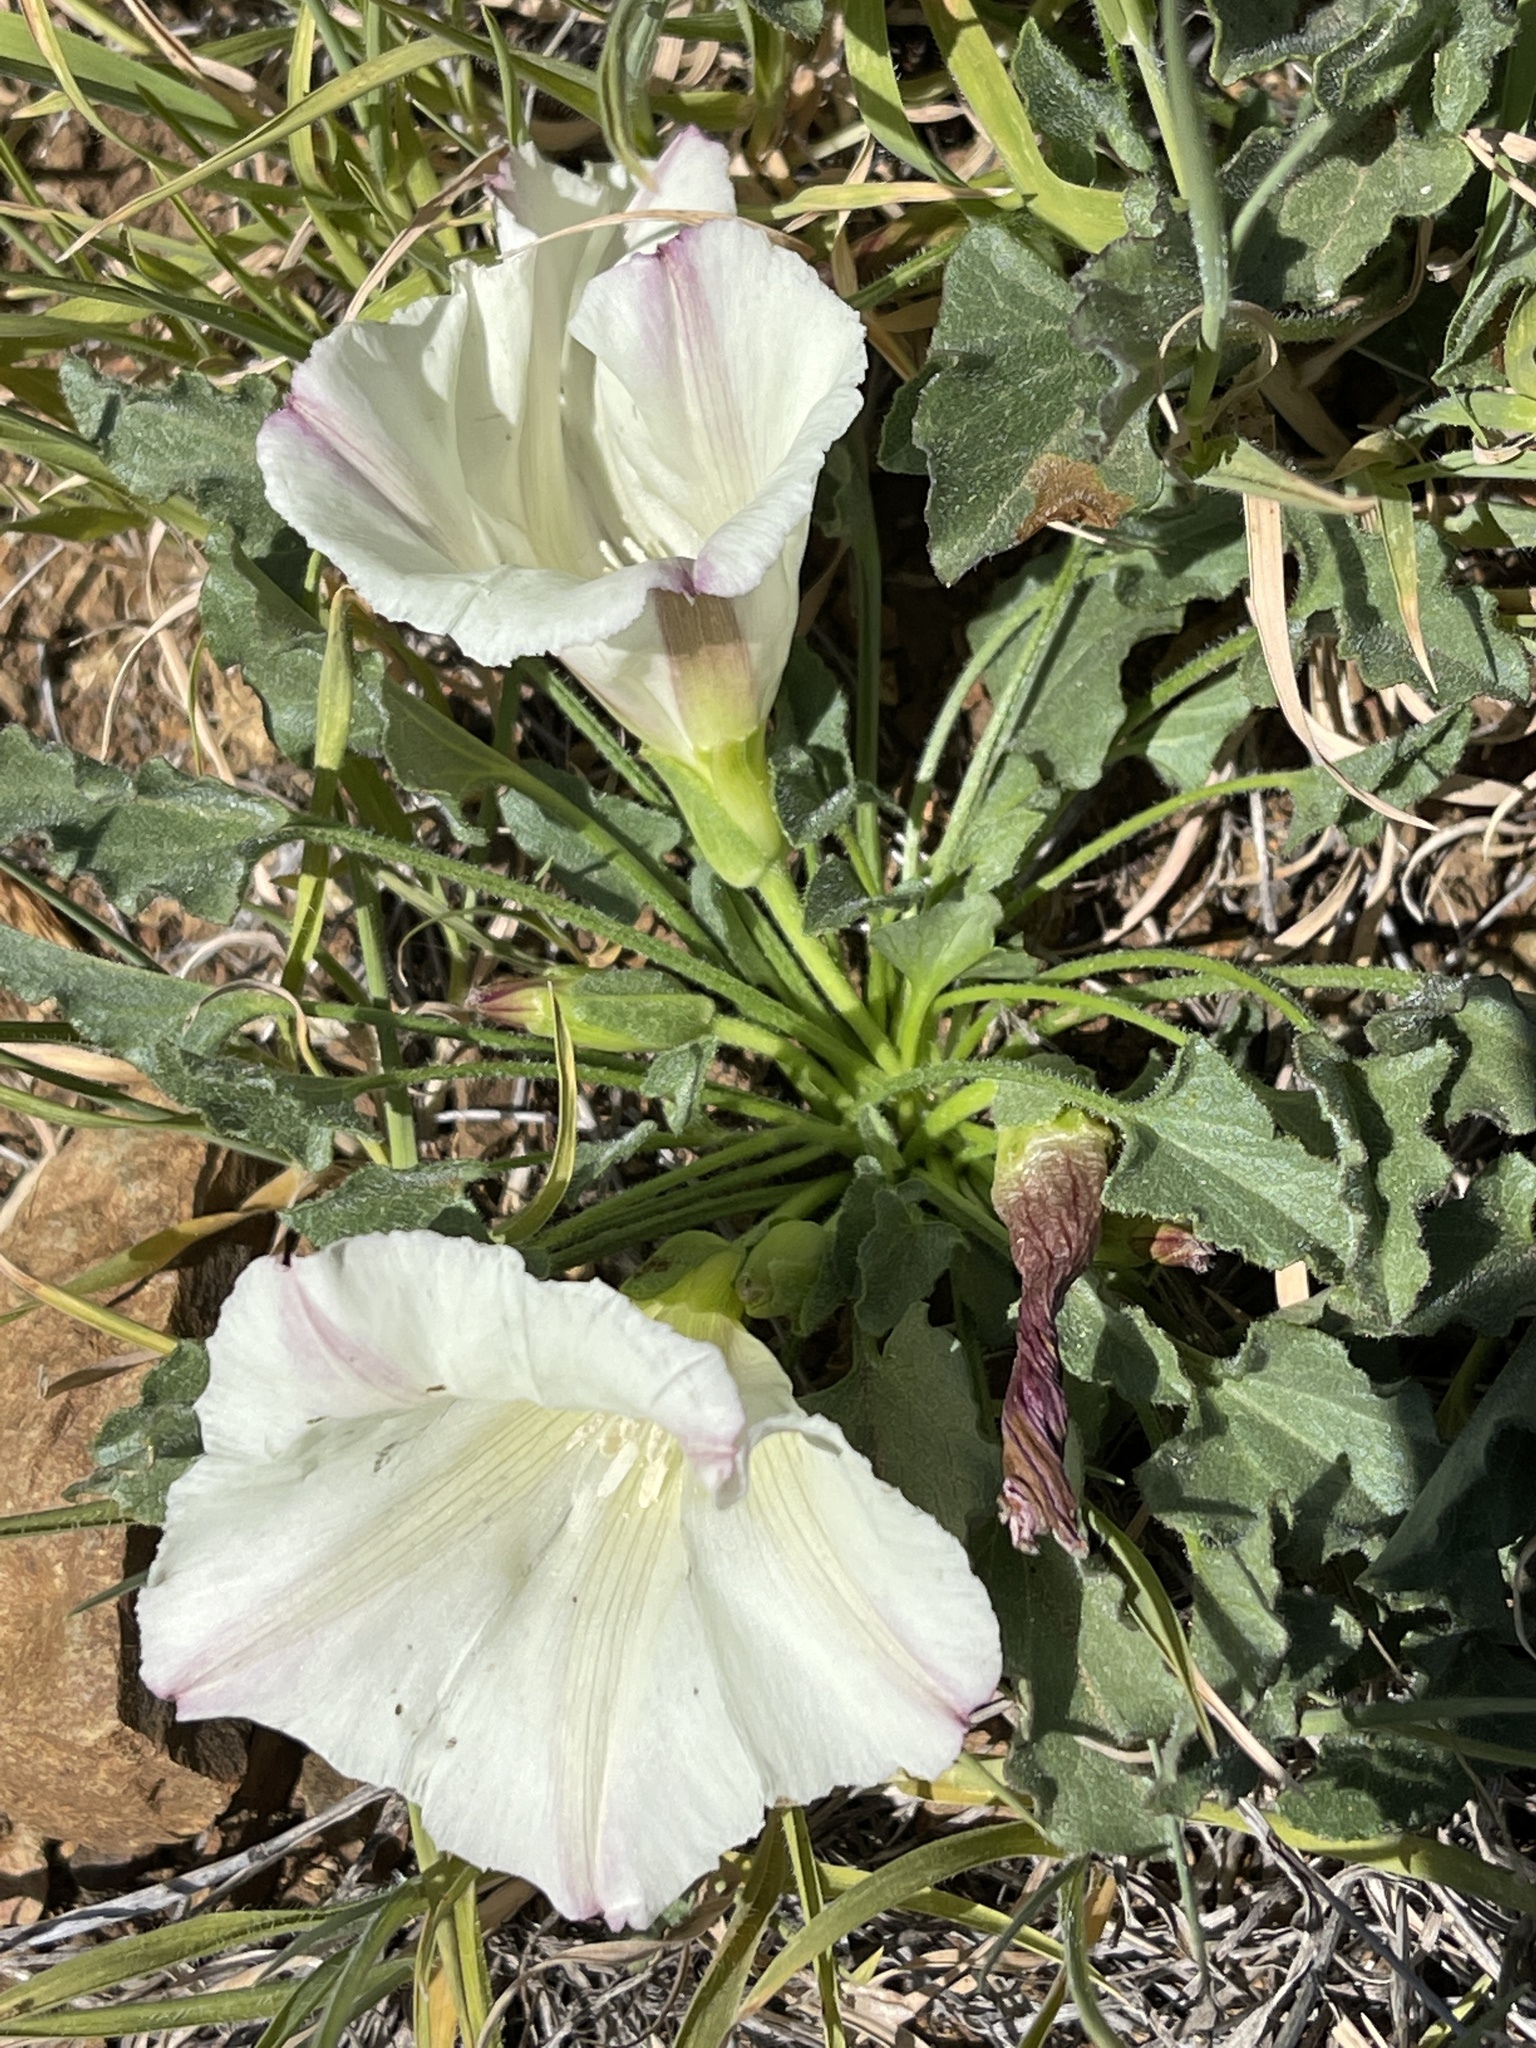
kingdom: Plantae
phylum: Tracheophyta
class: Magnoliopsida
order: Solanales
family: Convolvulaceae
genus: Calystegia
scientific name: Calystegia collina
